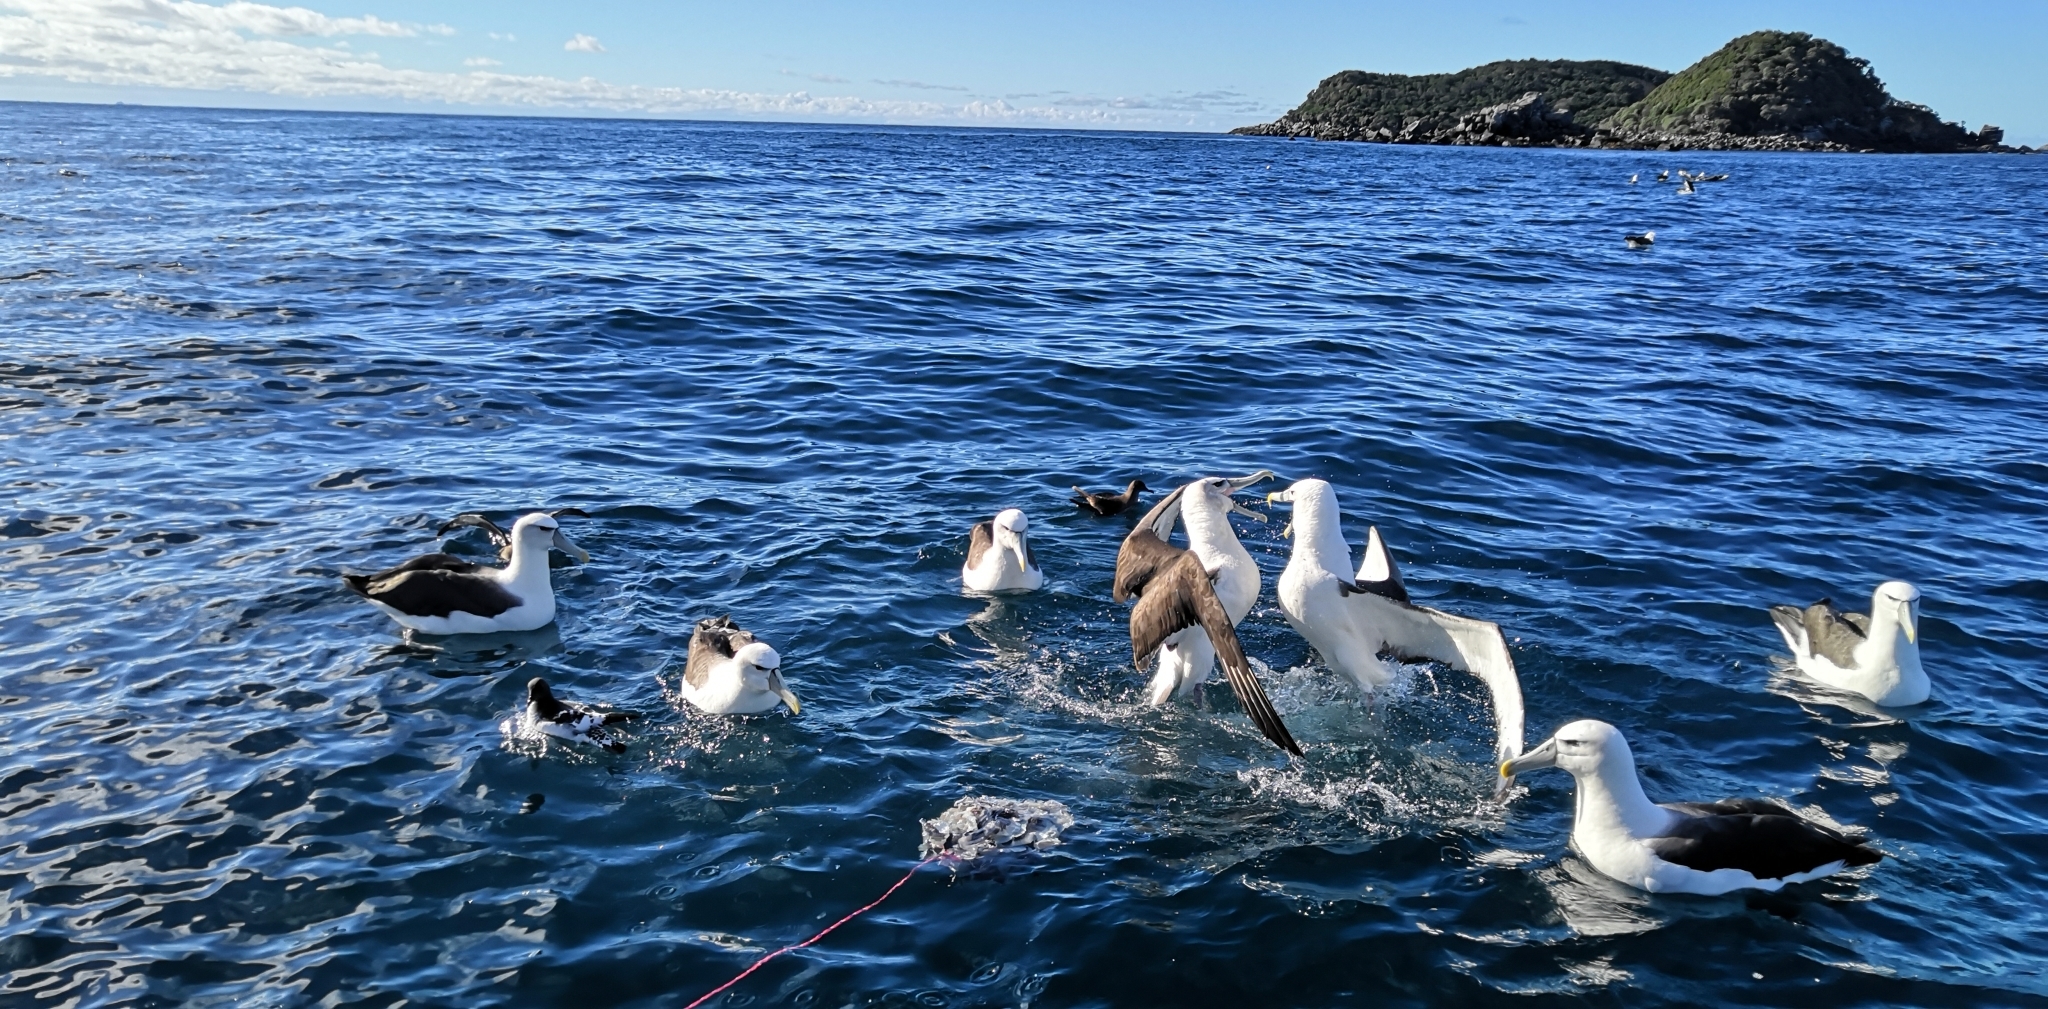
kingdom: Animalia
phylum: Chordata
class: Aves
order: Procellariiformes
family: Diomedeidae
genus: Thalassarche
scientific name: Thalassarche cauta
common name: Shy albatross
